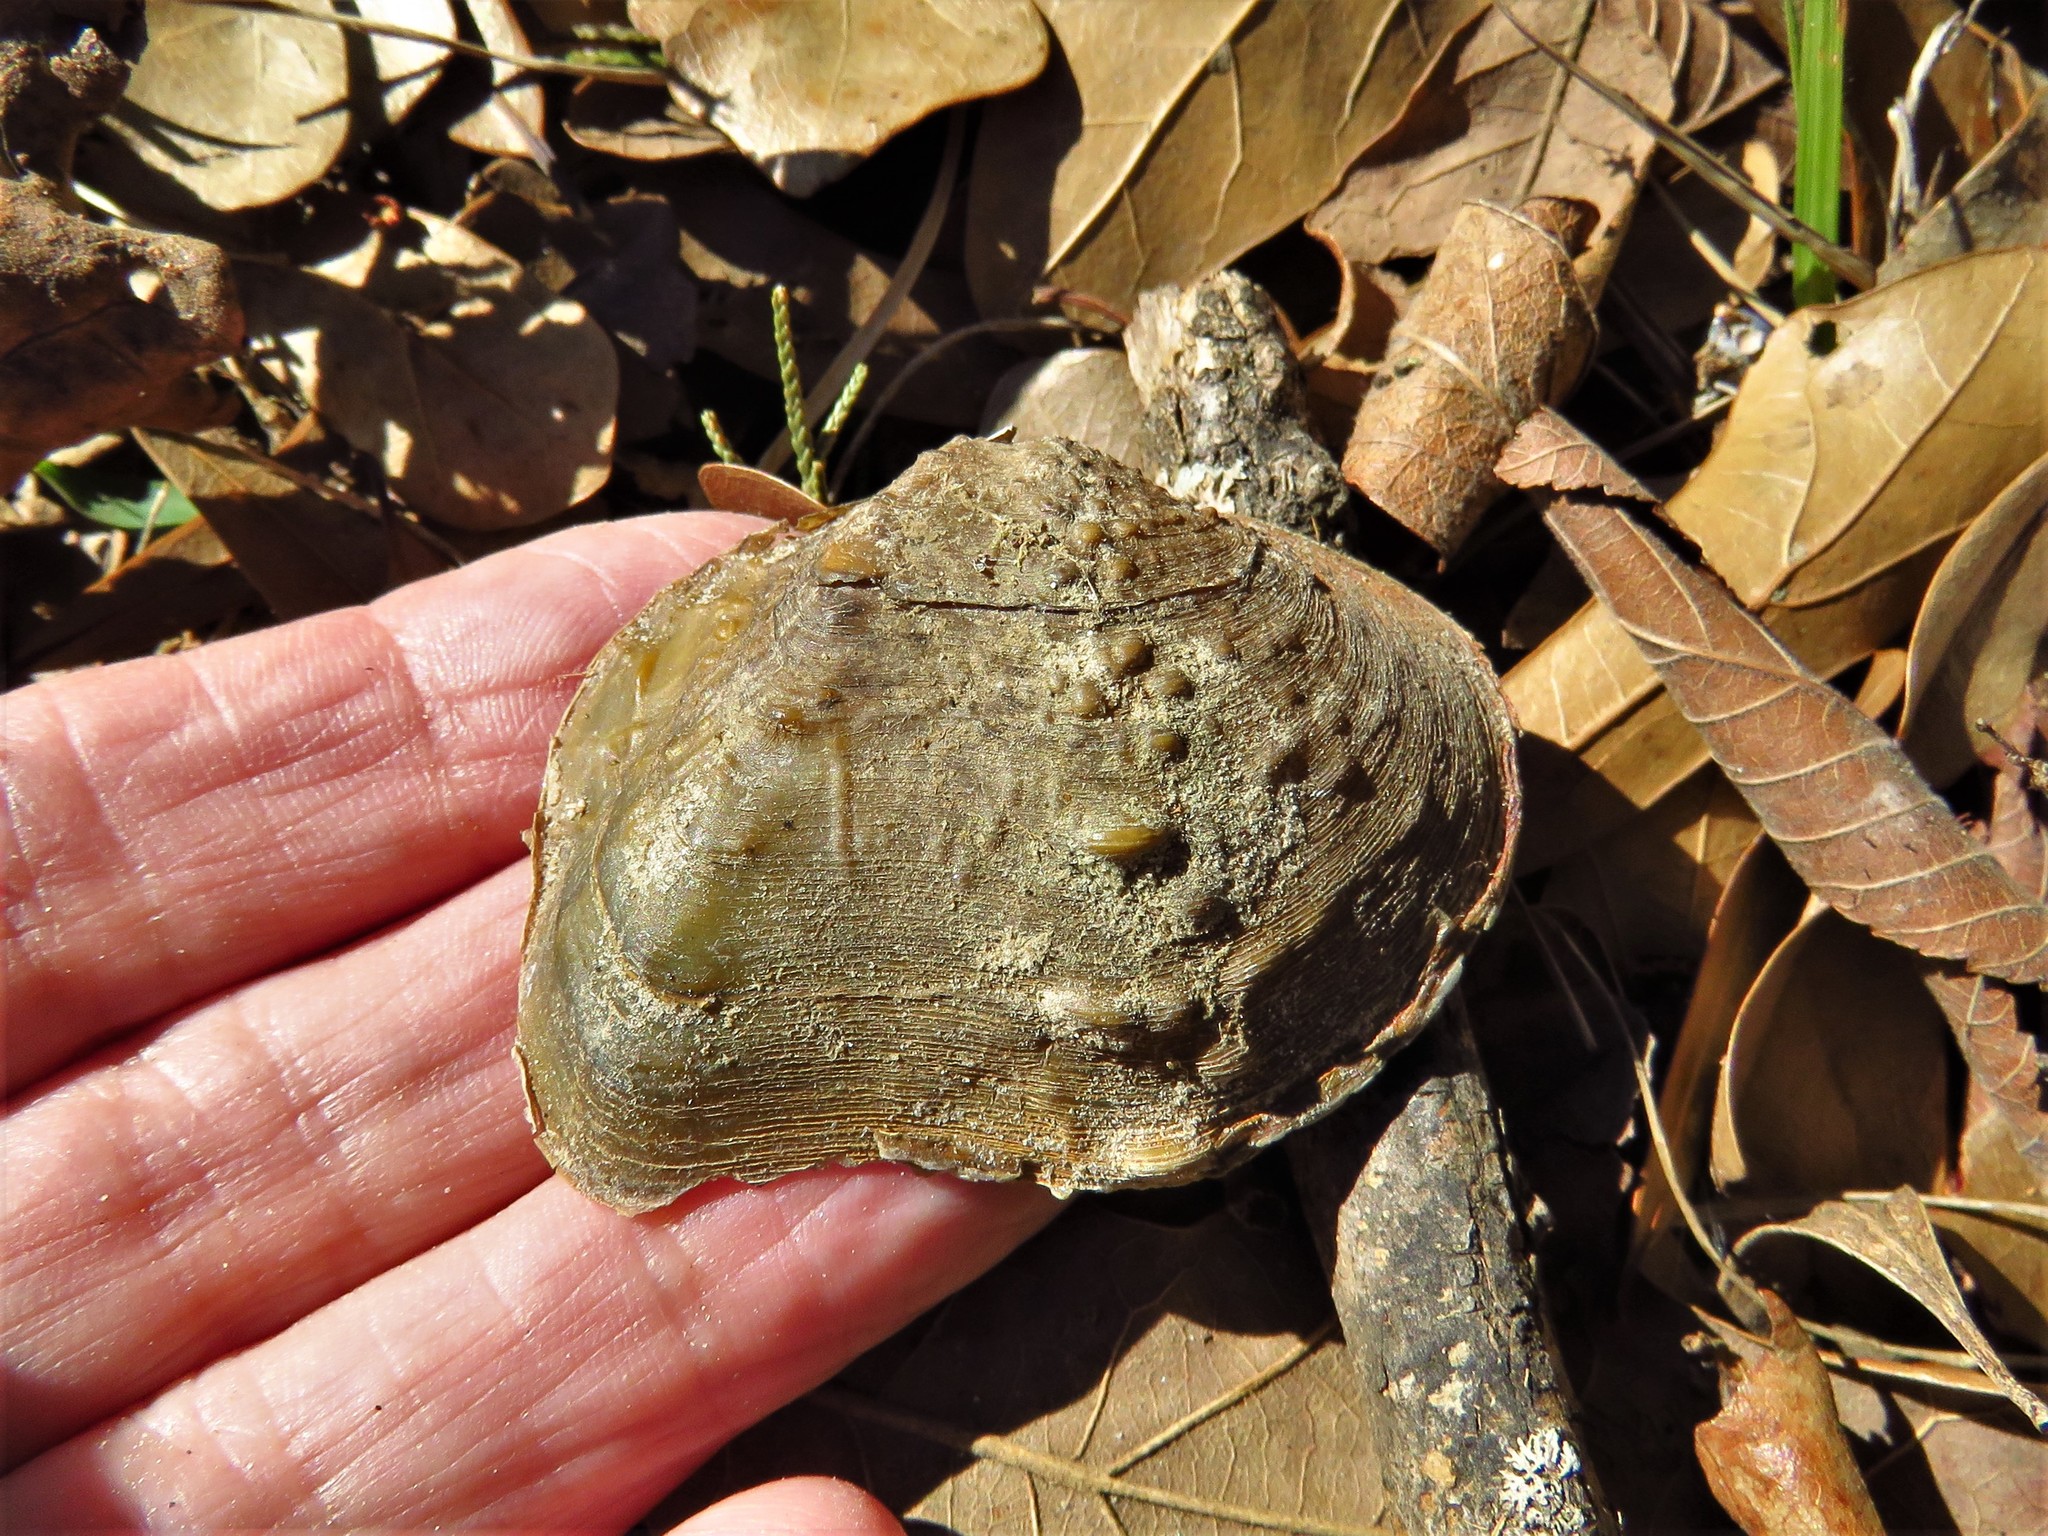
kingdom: Animalia
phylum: Mollusca
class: Bivalvia
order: Unionida
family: Unionidae
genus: Quadrula
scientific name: Quadrula quadrula
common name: Mapleleaf
